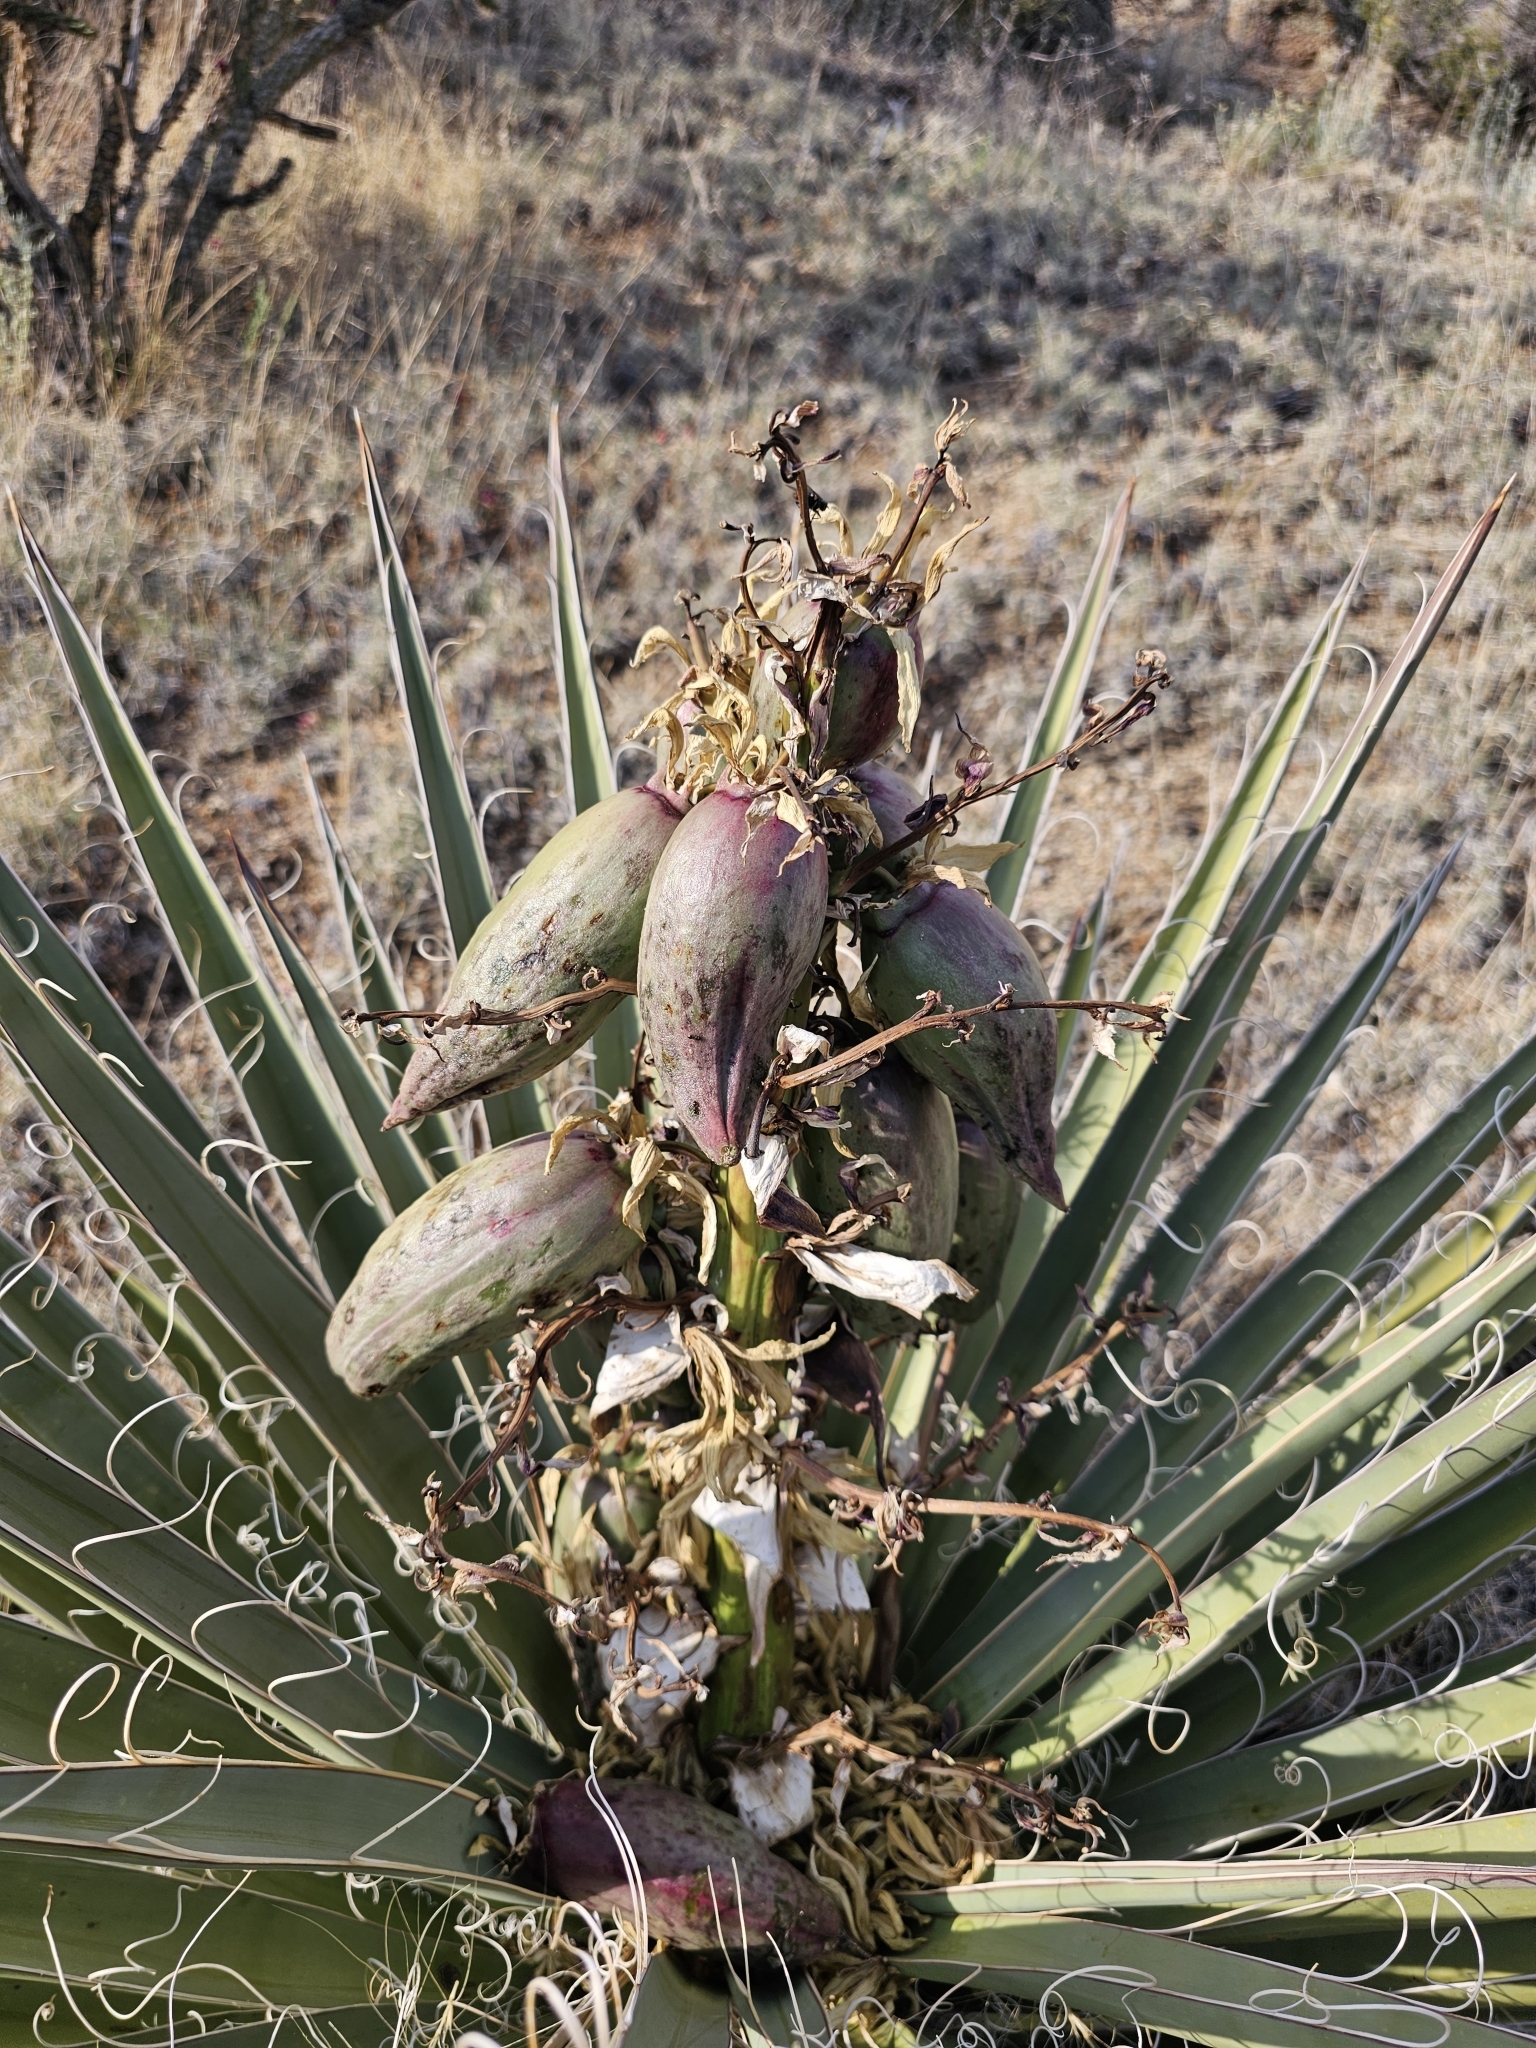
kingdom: Plantae
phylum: Tracheophyta
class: Liliopsida
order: Asparagales
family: Asparagaceae
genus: Yucca
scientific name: Yucca baccata
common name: Banana yucca
